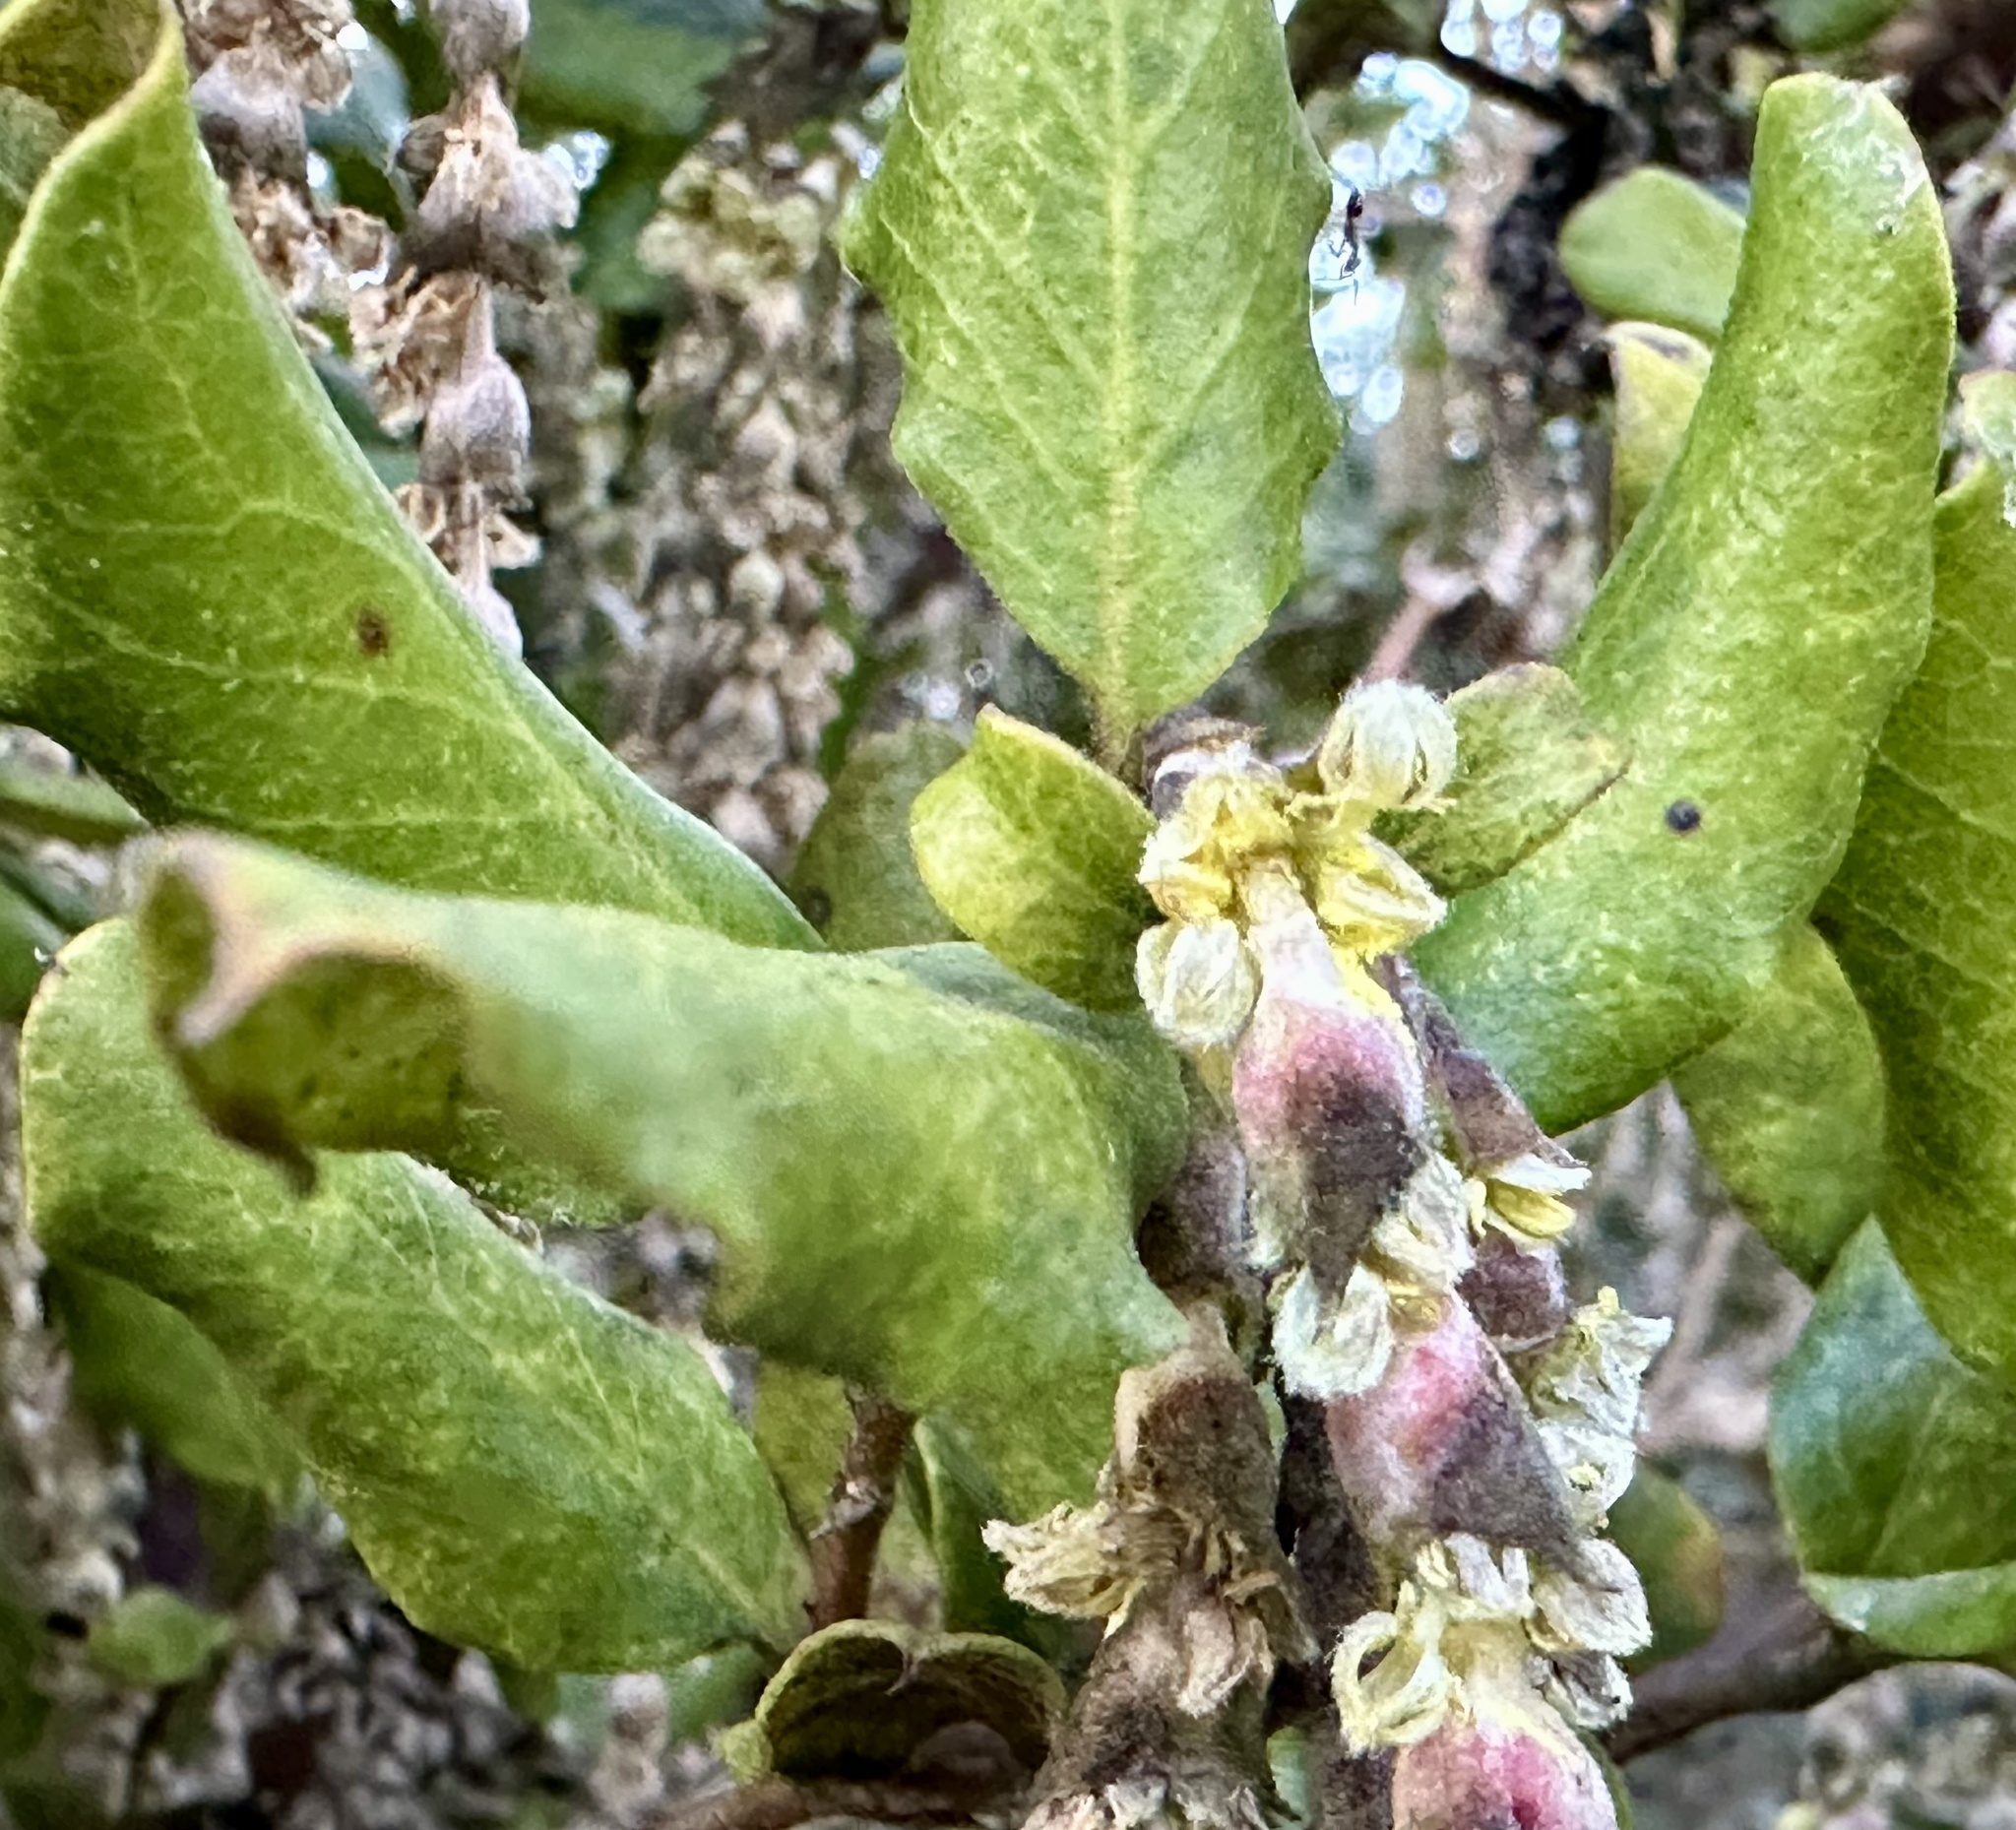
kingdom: Plantae
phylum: Tracheophyta
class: Magnoliopsida
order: Garryales
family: Garryaceae
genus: Garrya
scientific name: Garrya elliptica
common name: Silk-tassel
